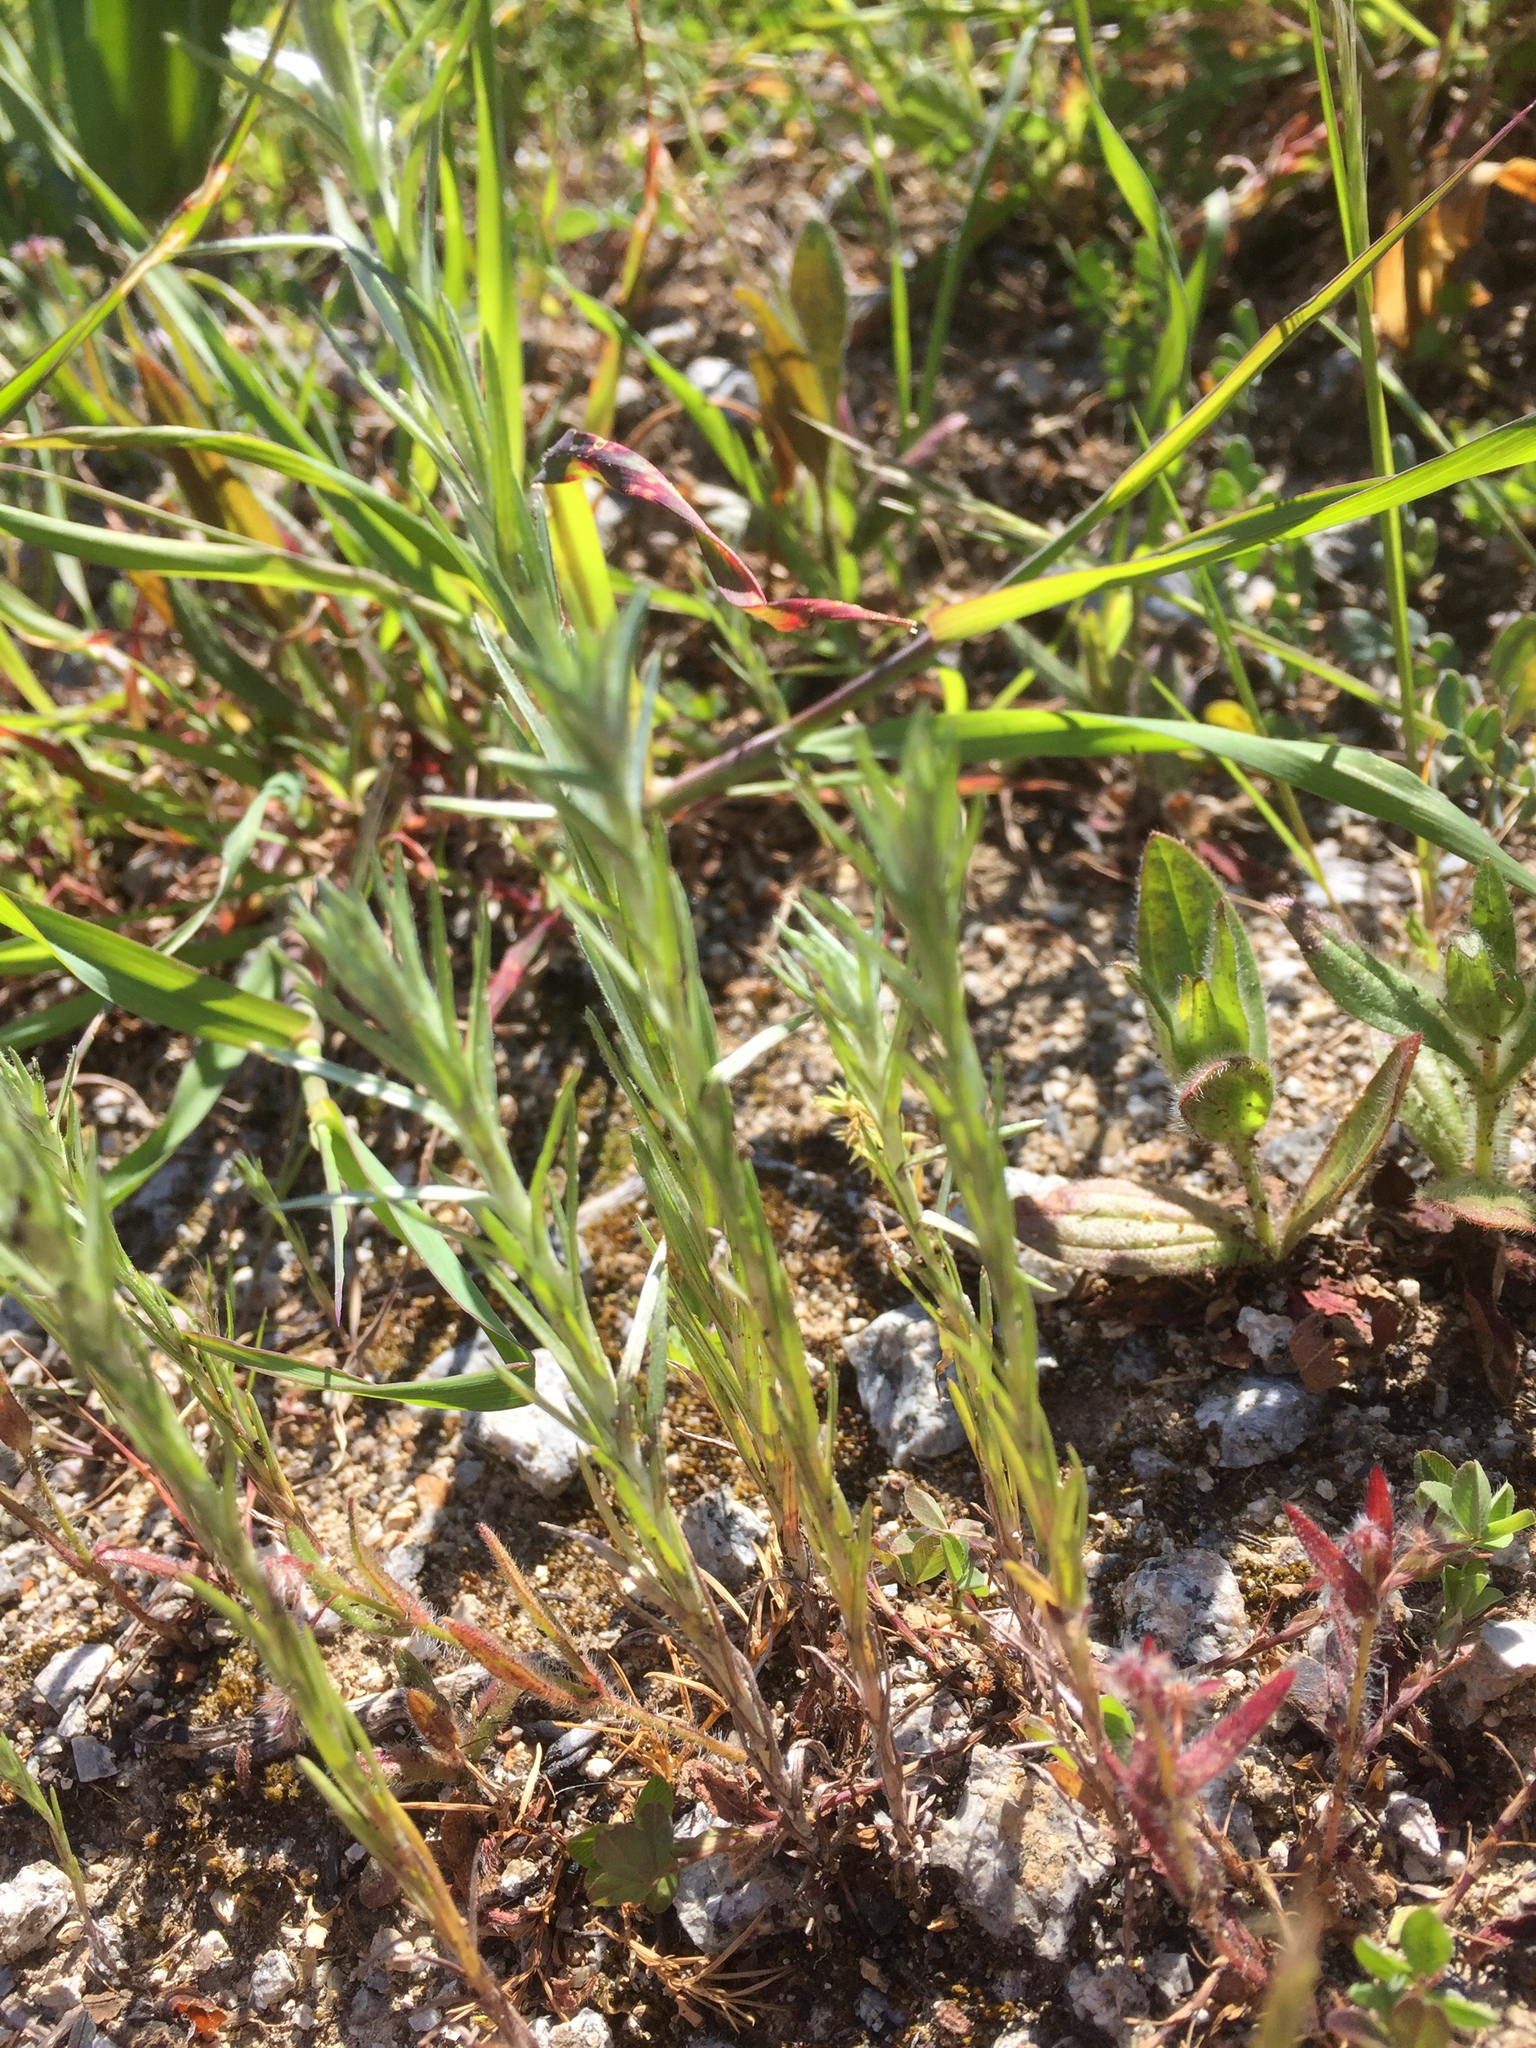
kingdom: Plantae
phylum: Tracheophyta
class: Magnoliopsida
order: Asterales
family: Asteraceae
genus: Logfia
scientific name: Logfia gallica
